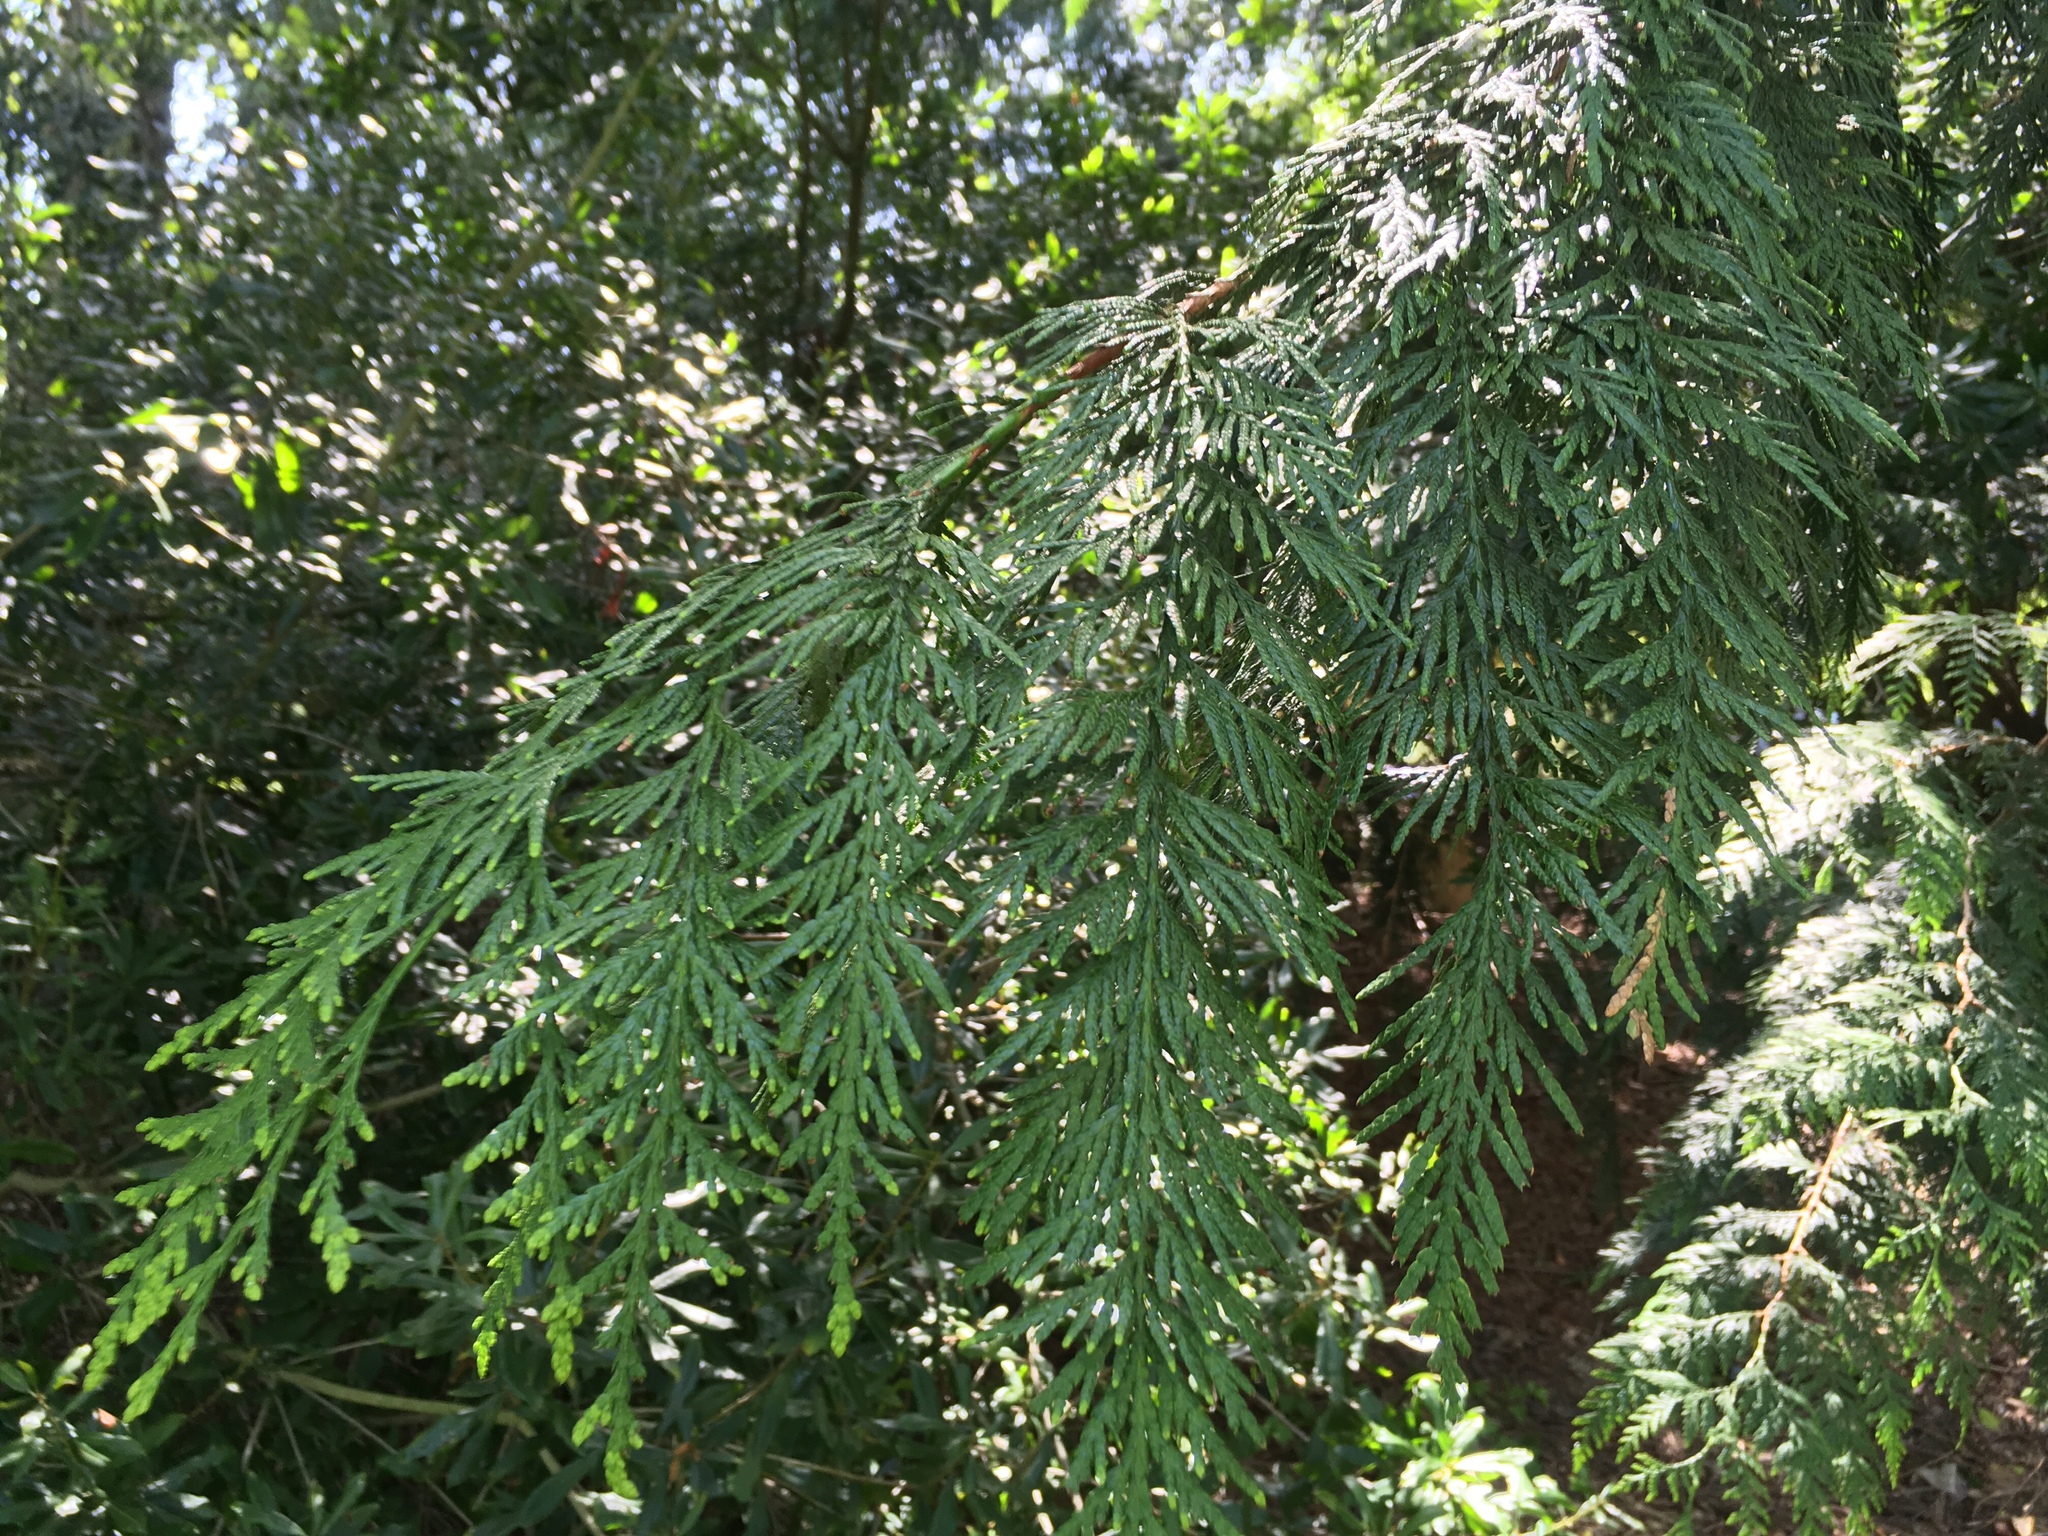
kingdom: Plantae
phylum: Tracheophyta
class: Pinopsida
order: Pinales
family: Cupressaceae
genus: Thuja
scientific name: Thuja plicata
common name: Western red-cedar
